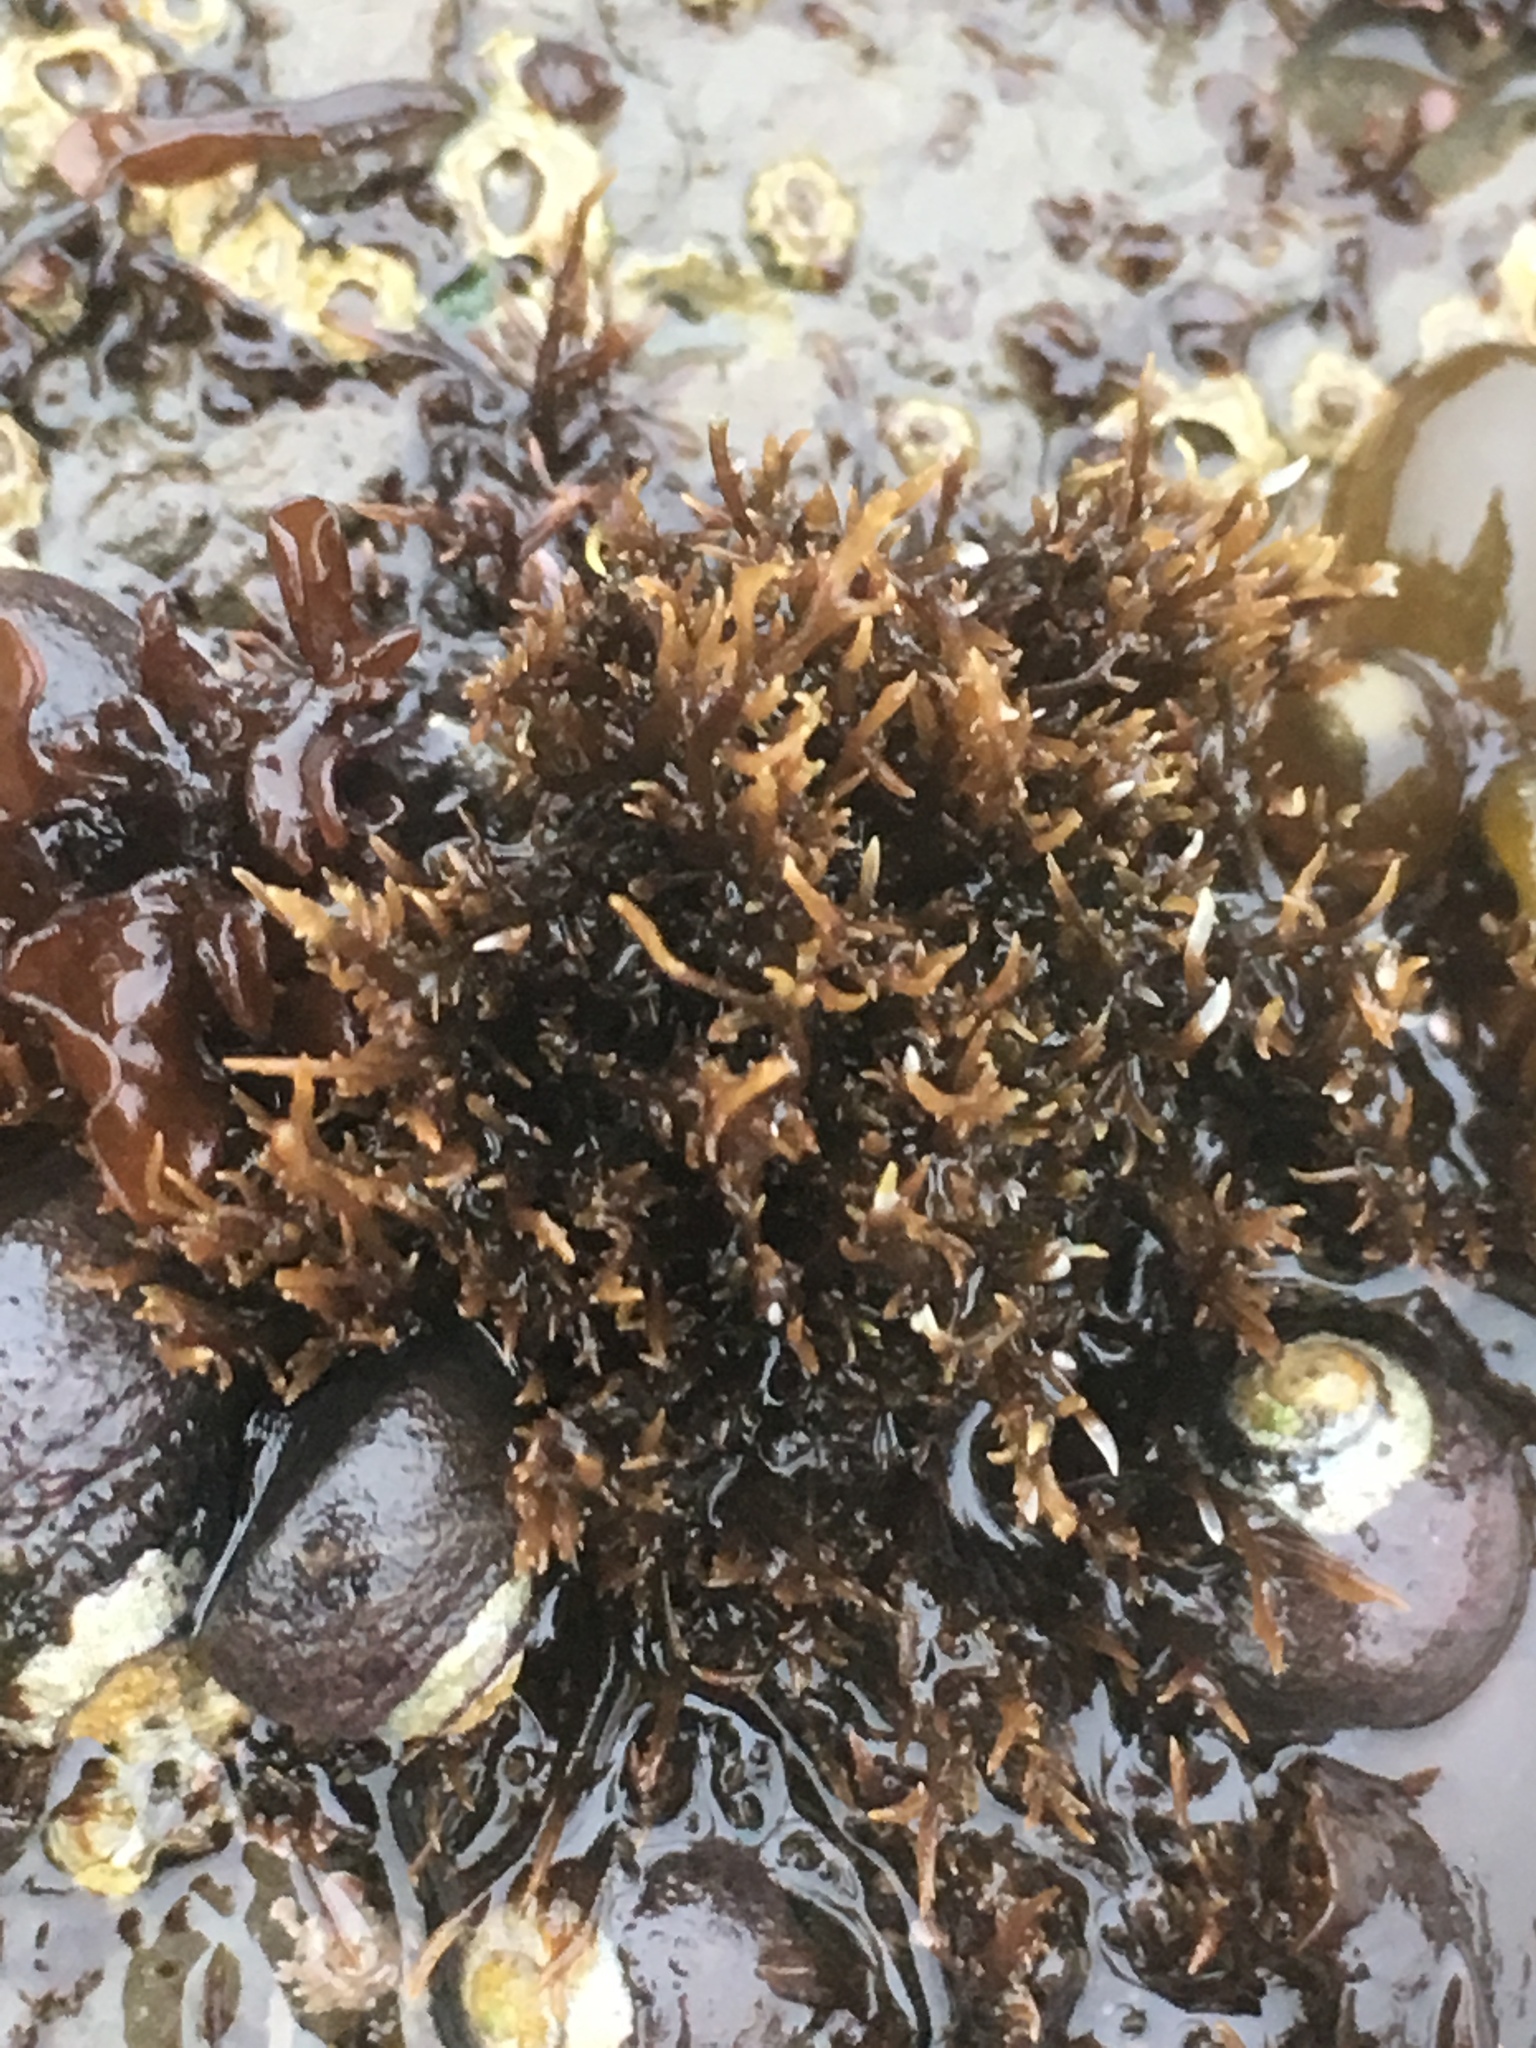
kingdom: Plantae
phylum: Rhodophyta
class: Florideophyceae
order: Gigartinales
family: Gigartinaceae
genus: Chondracanthus
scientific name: Chondracanthus canaliculatus
